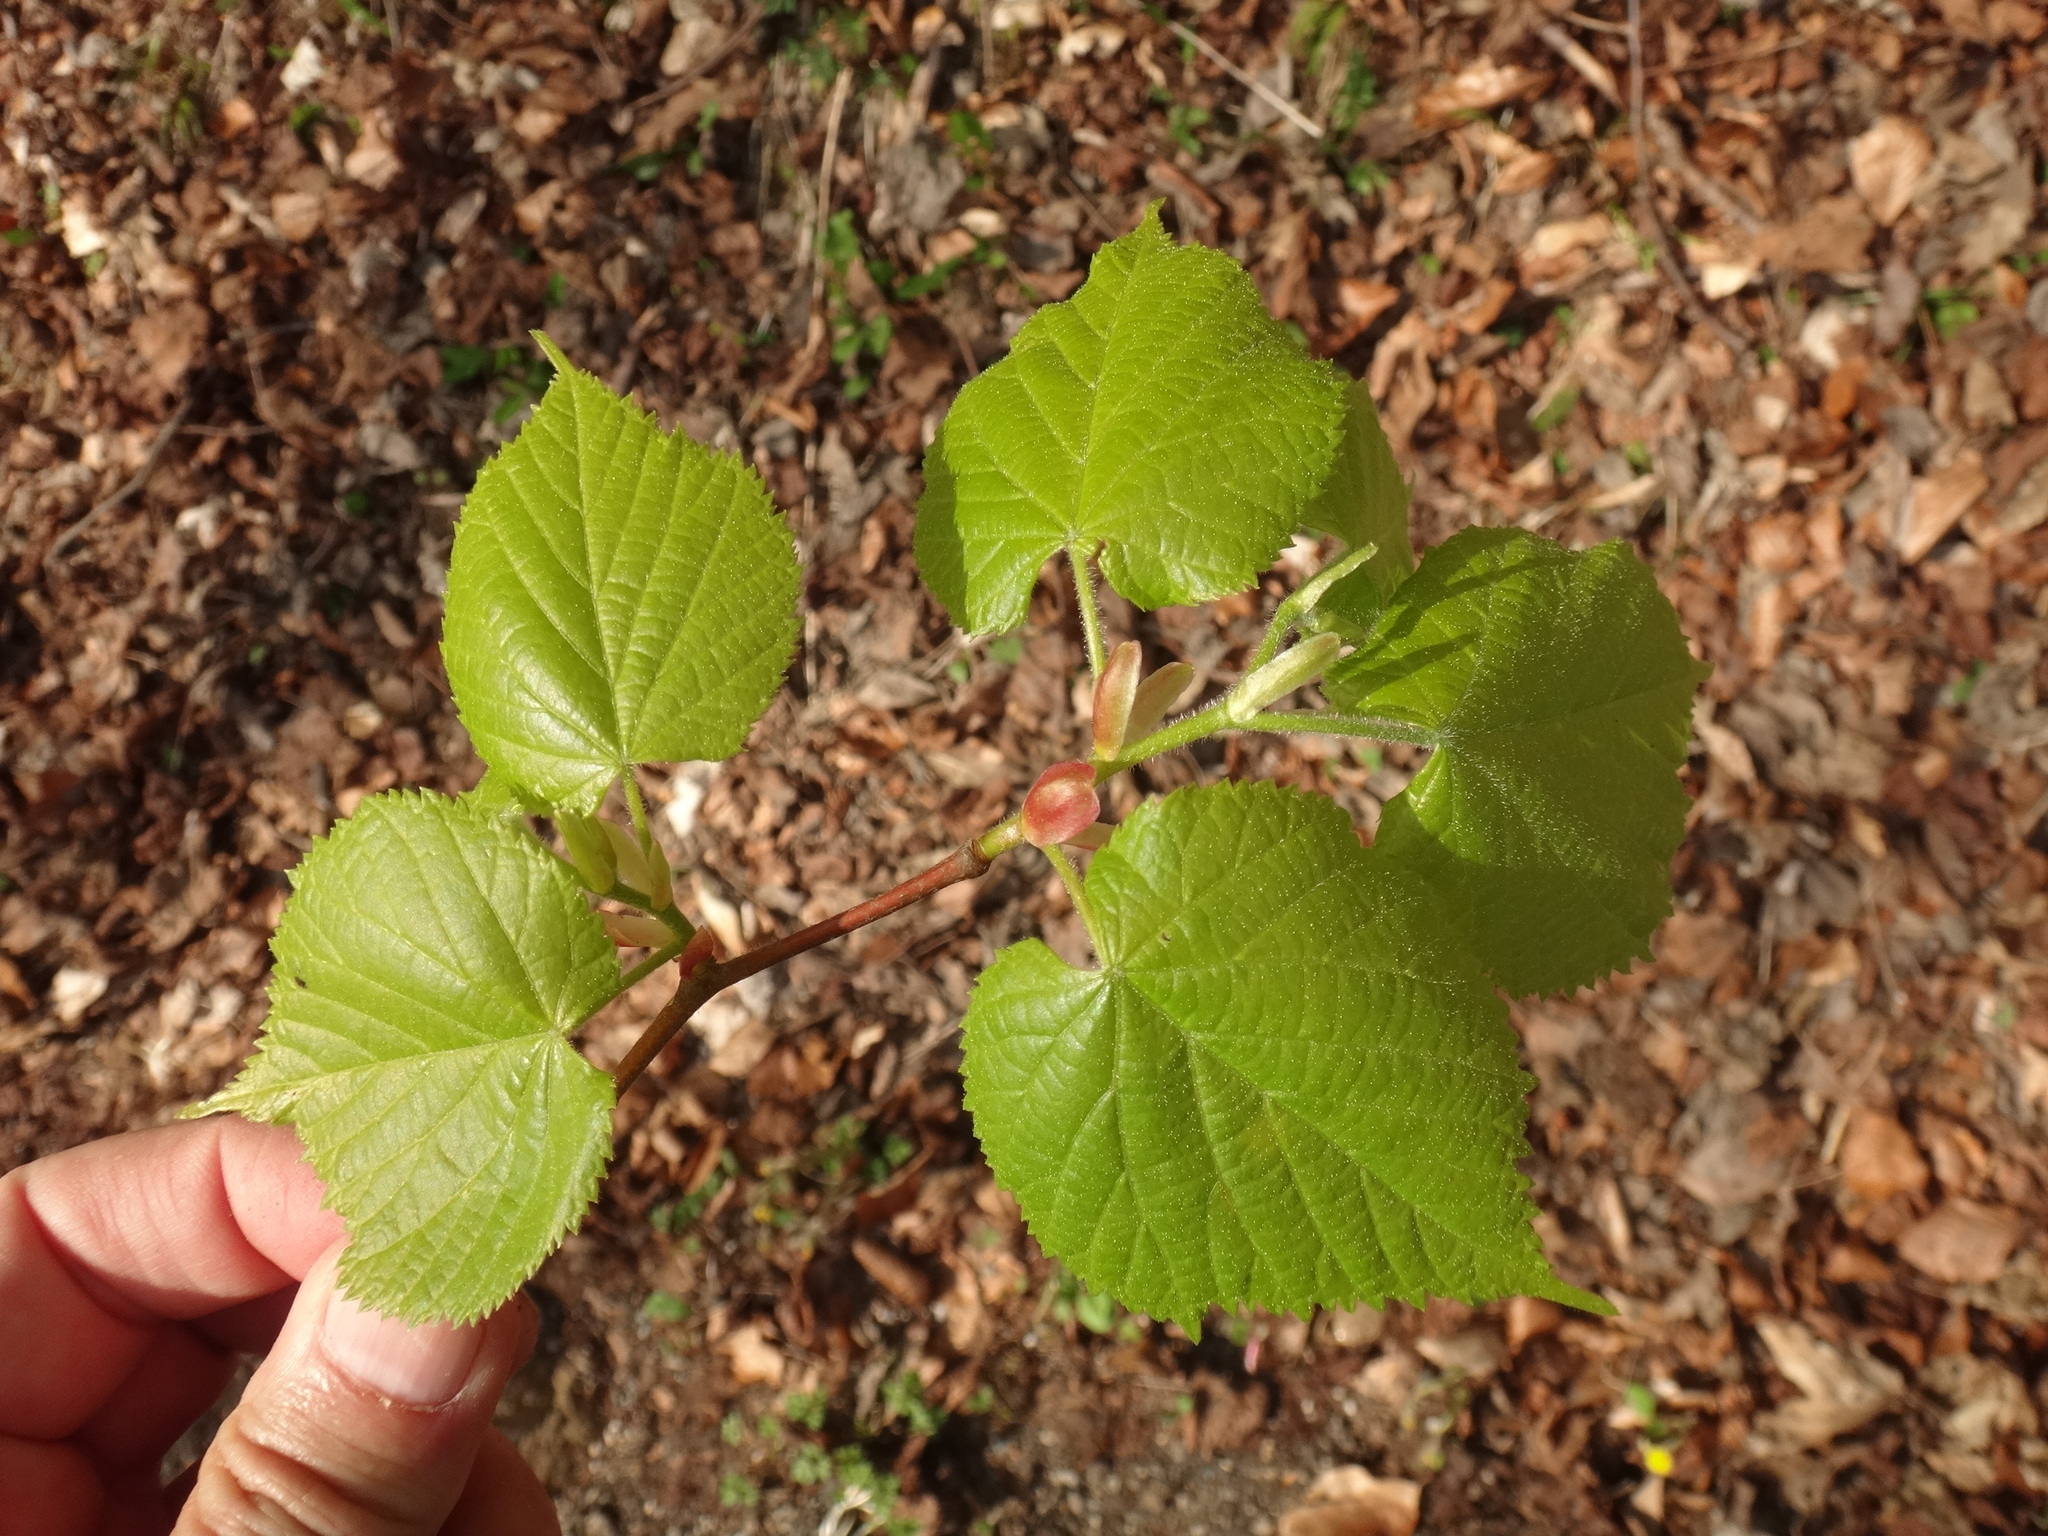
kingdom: Plantae
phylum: Tracheophyta
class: Magnoliopsida
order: Malvales
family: Malvaceae
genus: Tilia
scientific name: Tilia platyphyllos
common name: Large-leaved lime
